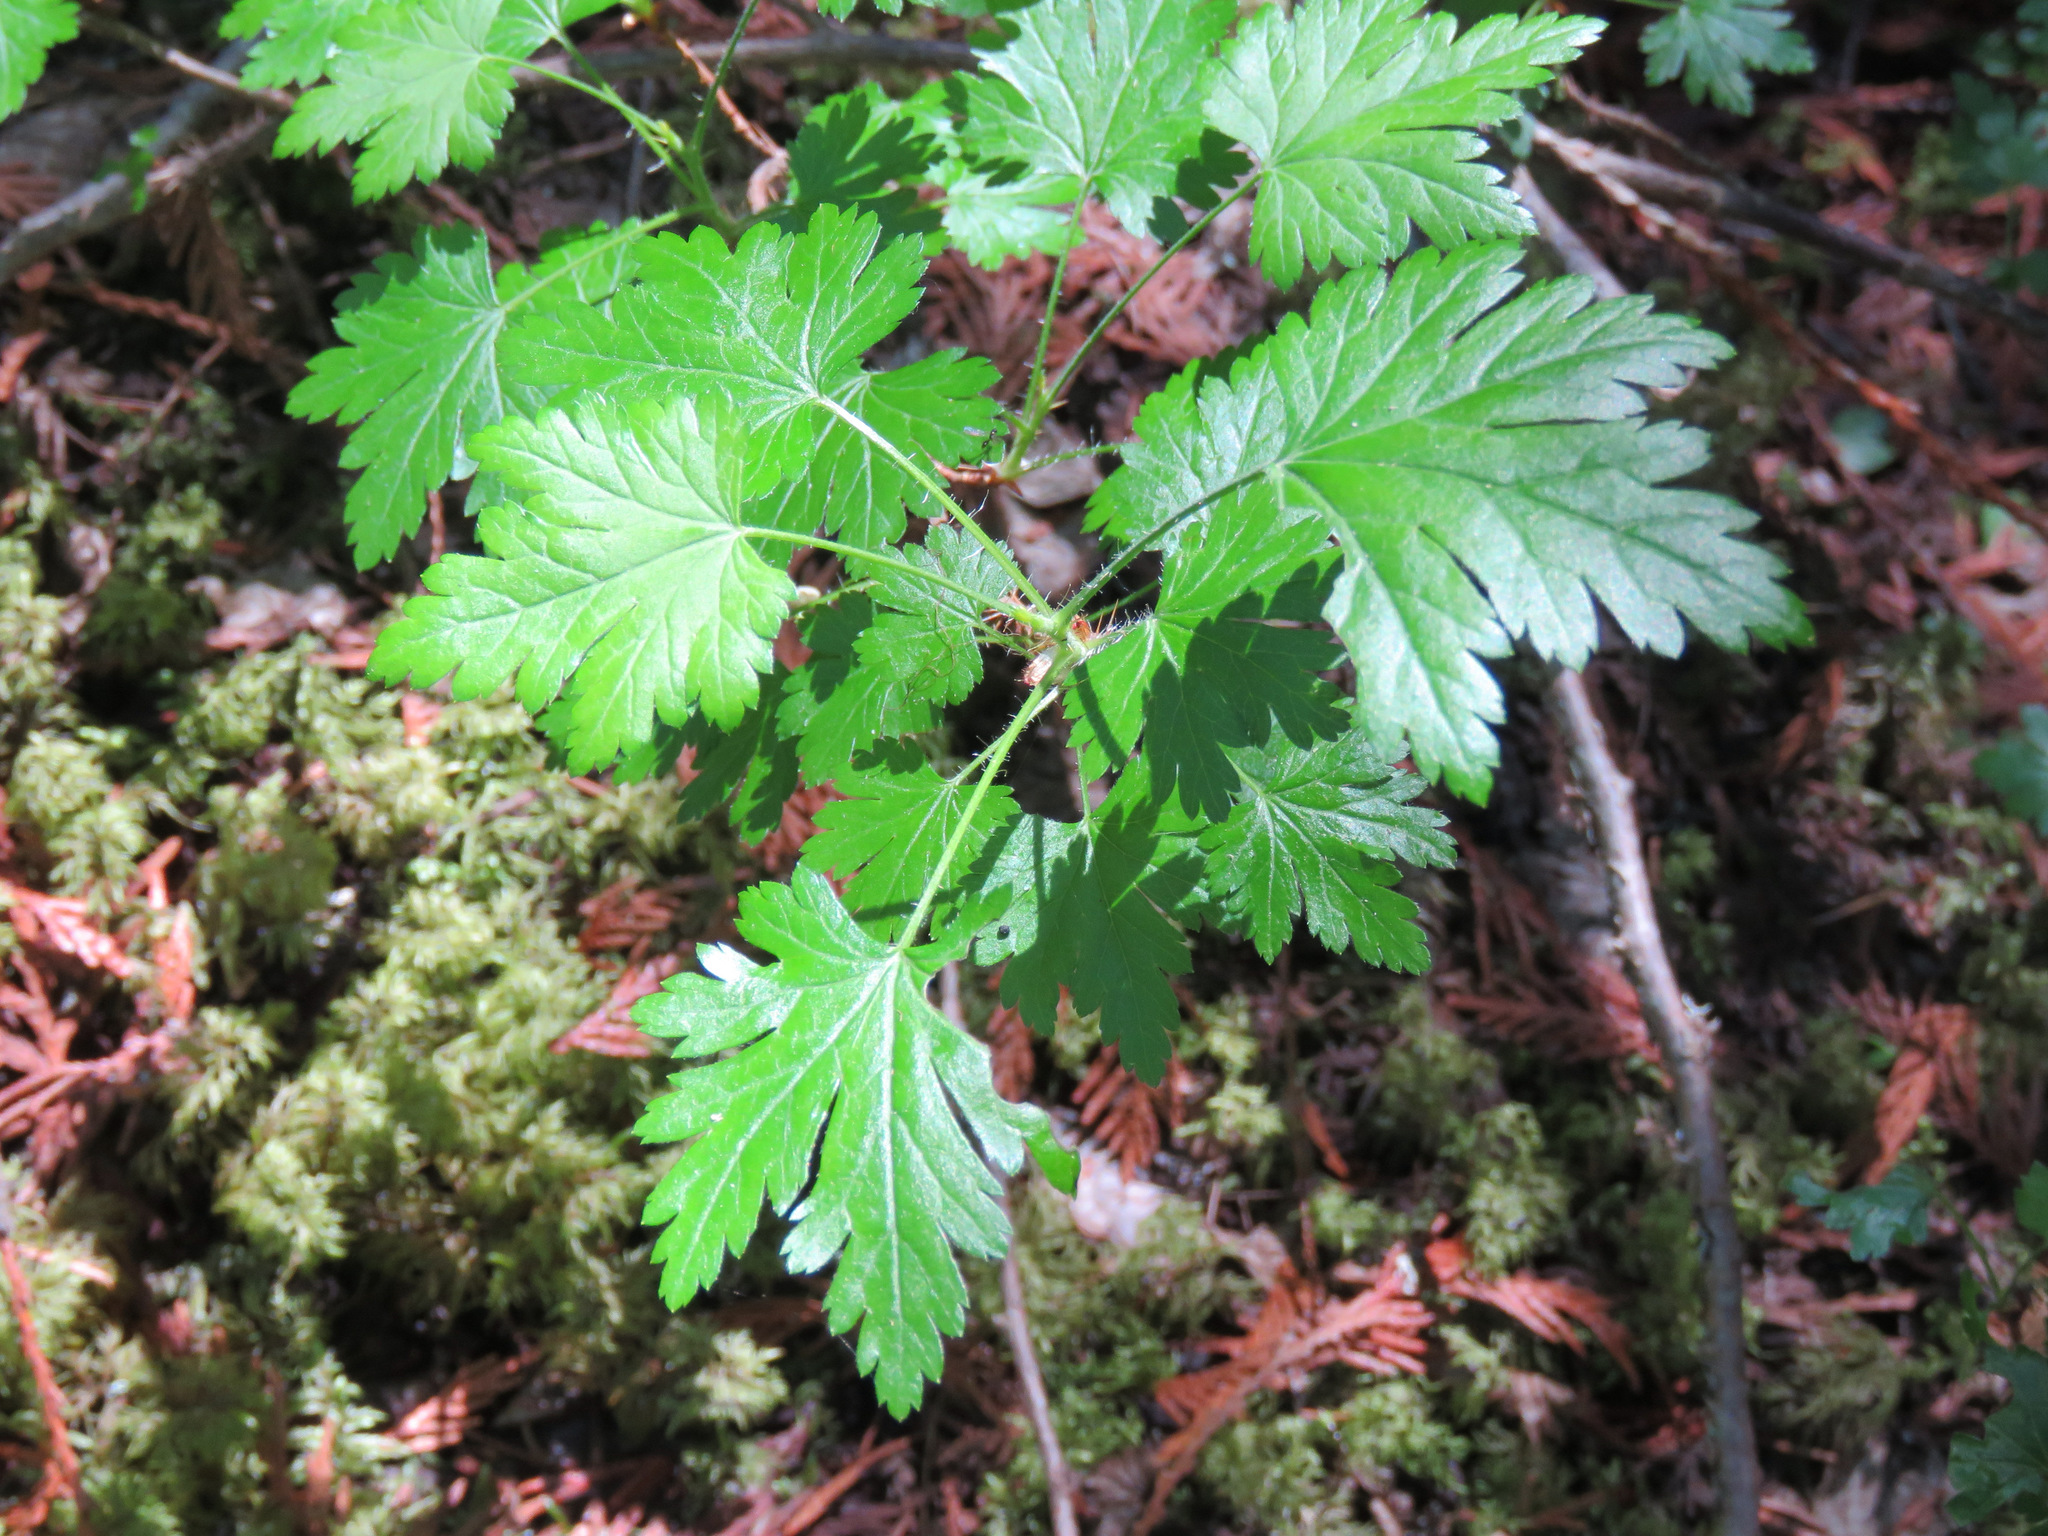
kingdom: Plantae
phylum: Tracheophyta
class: Magnoliopsida
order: Saxifragales
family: Grossulariaceae
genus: Ribes
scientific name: Ribes lacustre
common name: Black gooseberry
